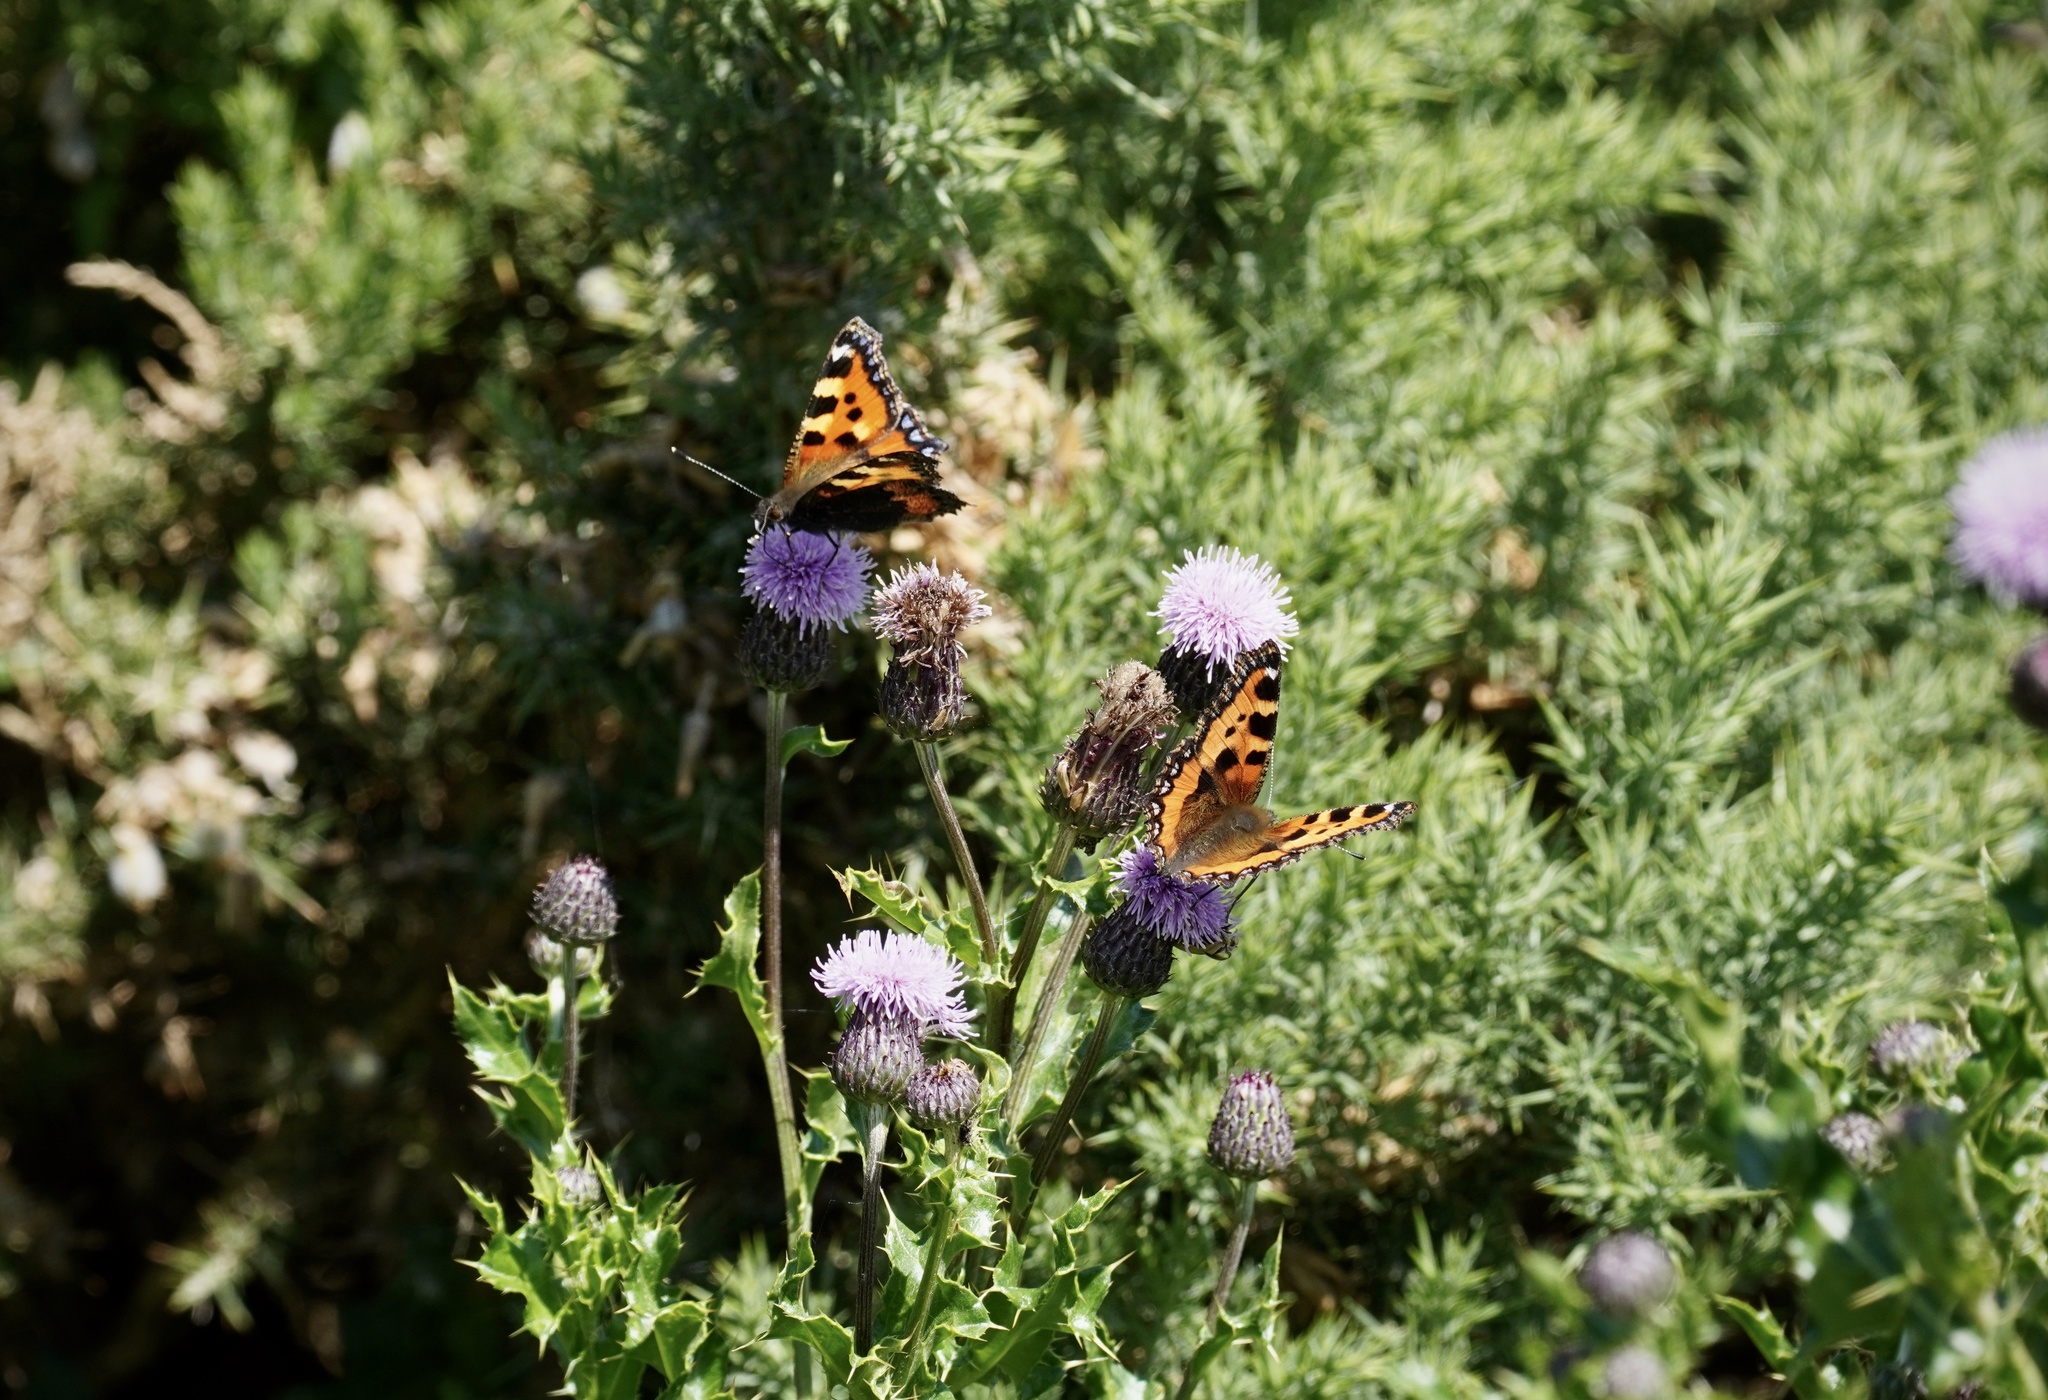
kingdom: Animalia
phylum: Arthropoda
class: Insecta
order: Lepidoptera
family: Nymphalidae
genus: Aglais
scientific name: Aglais urticae
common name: Small tortoiseshell
